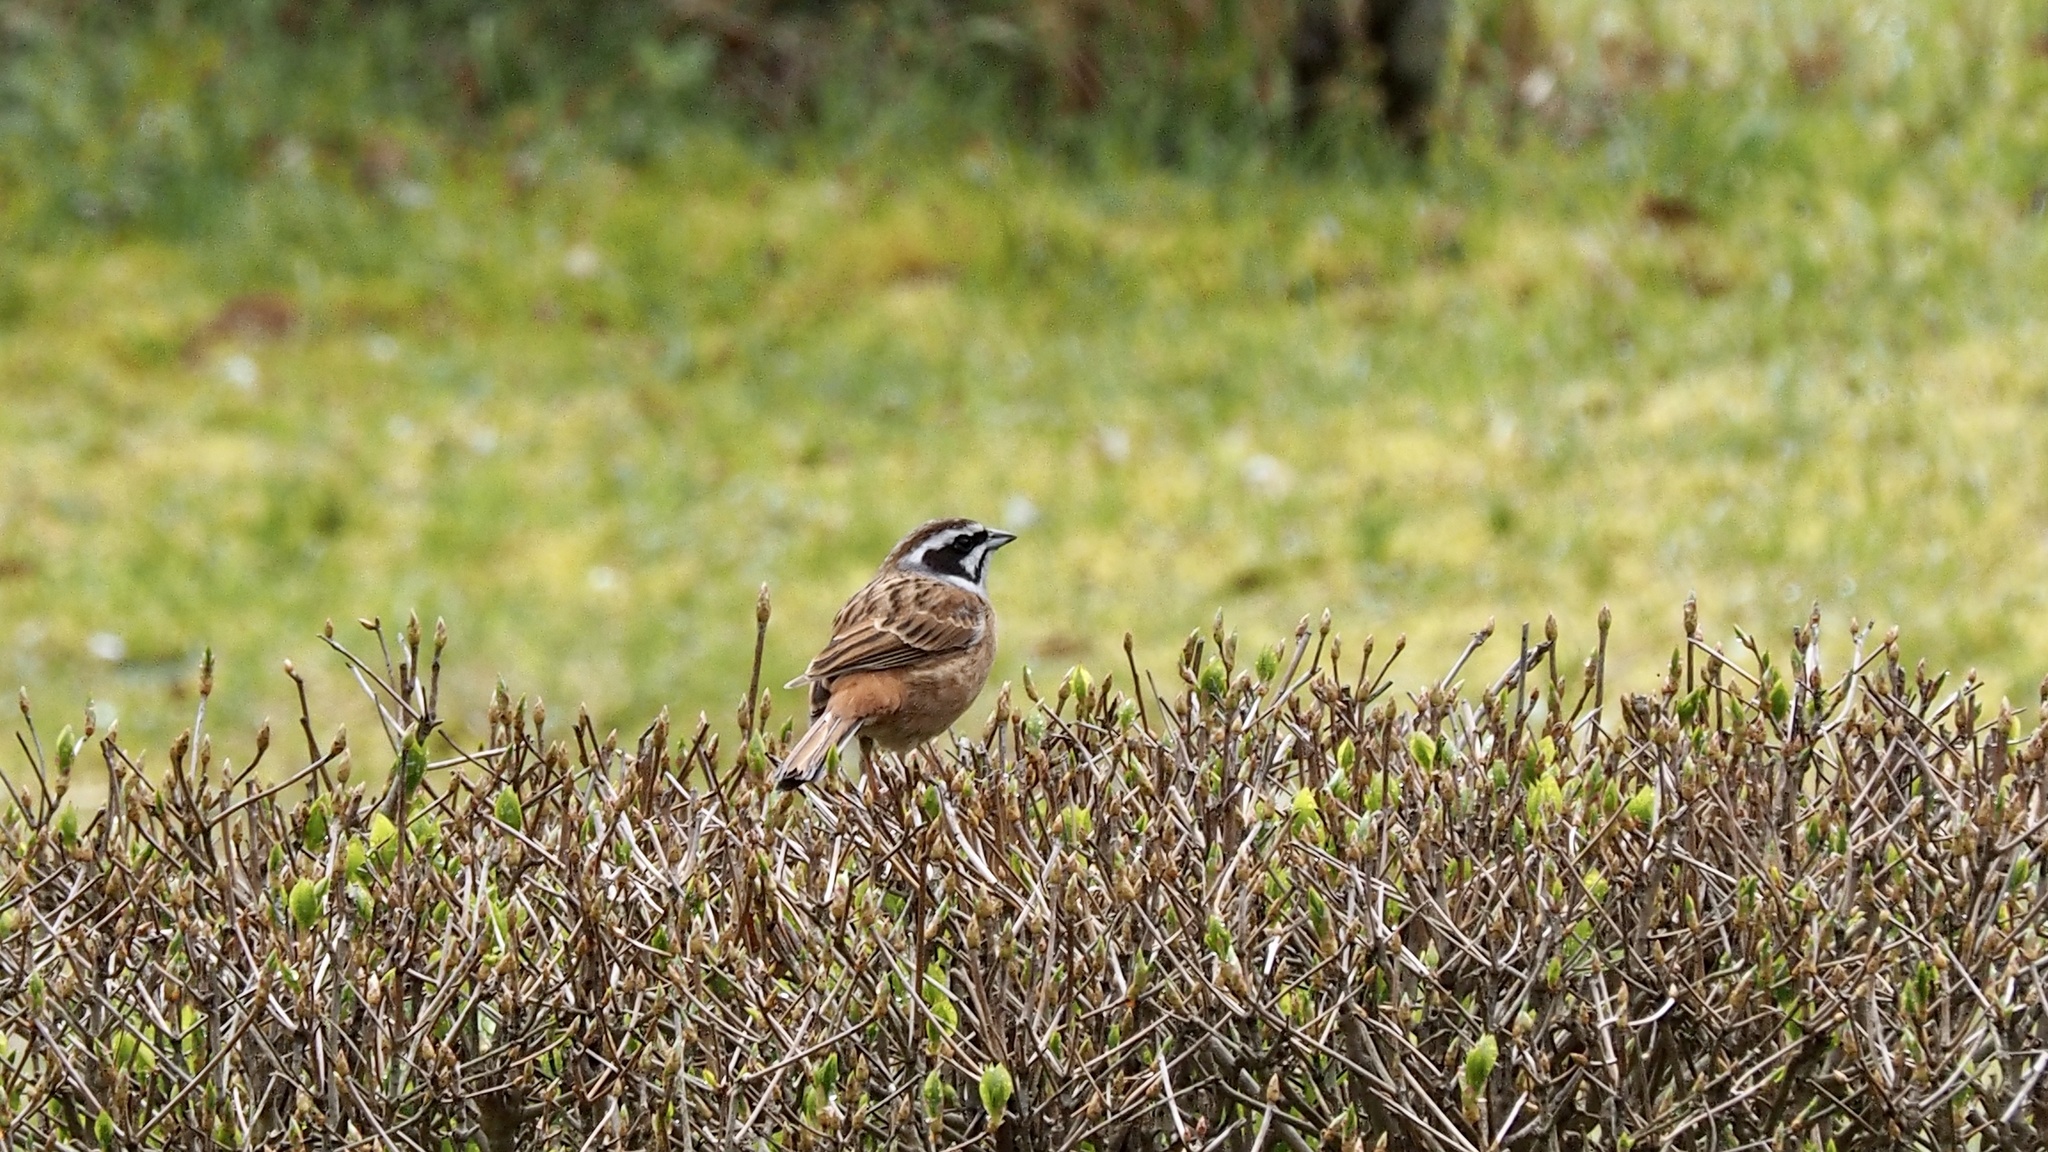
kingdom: Animalia
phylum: Chordata
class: Aves
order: Passeriformes
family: Emberizidae
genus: Emberiza
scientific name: Emberiza cioides
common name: Meadow bunting
